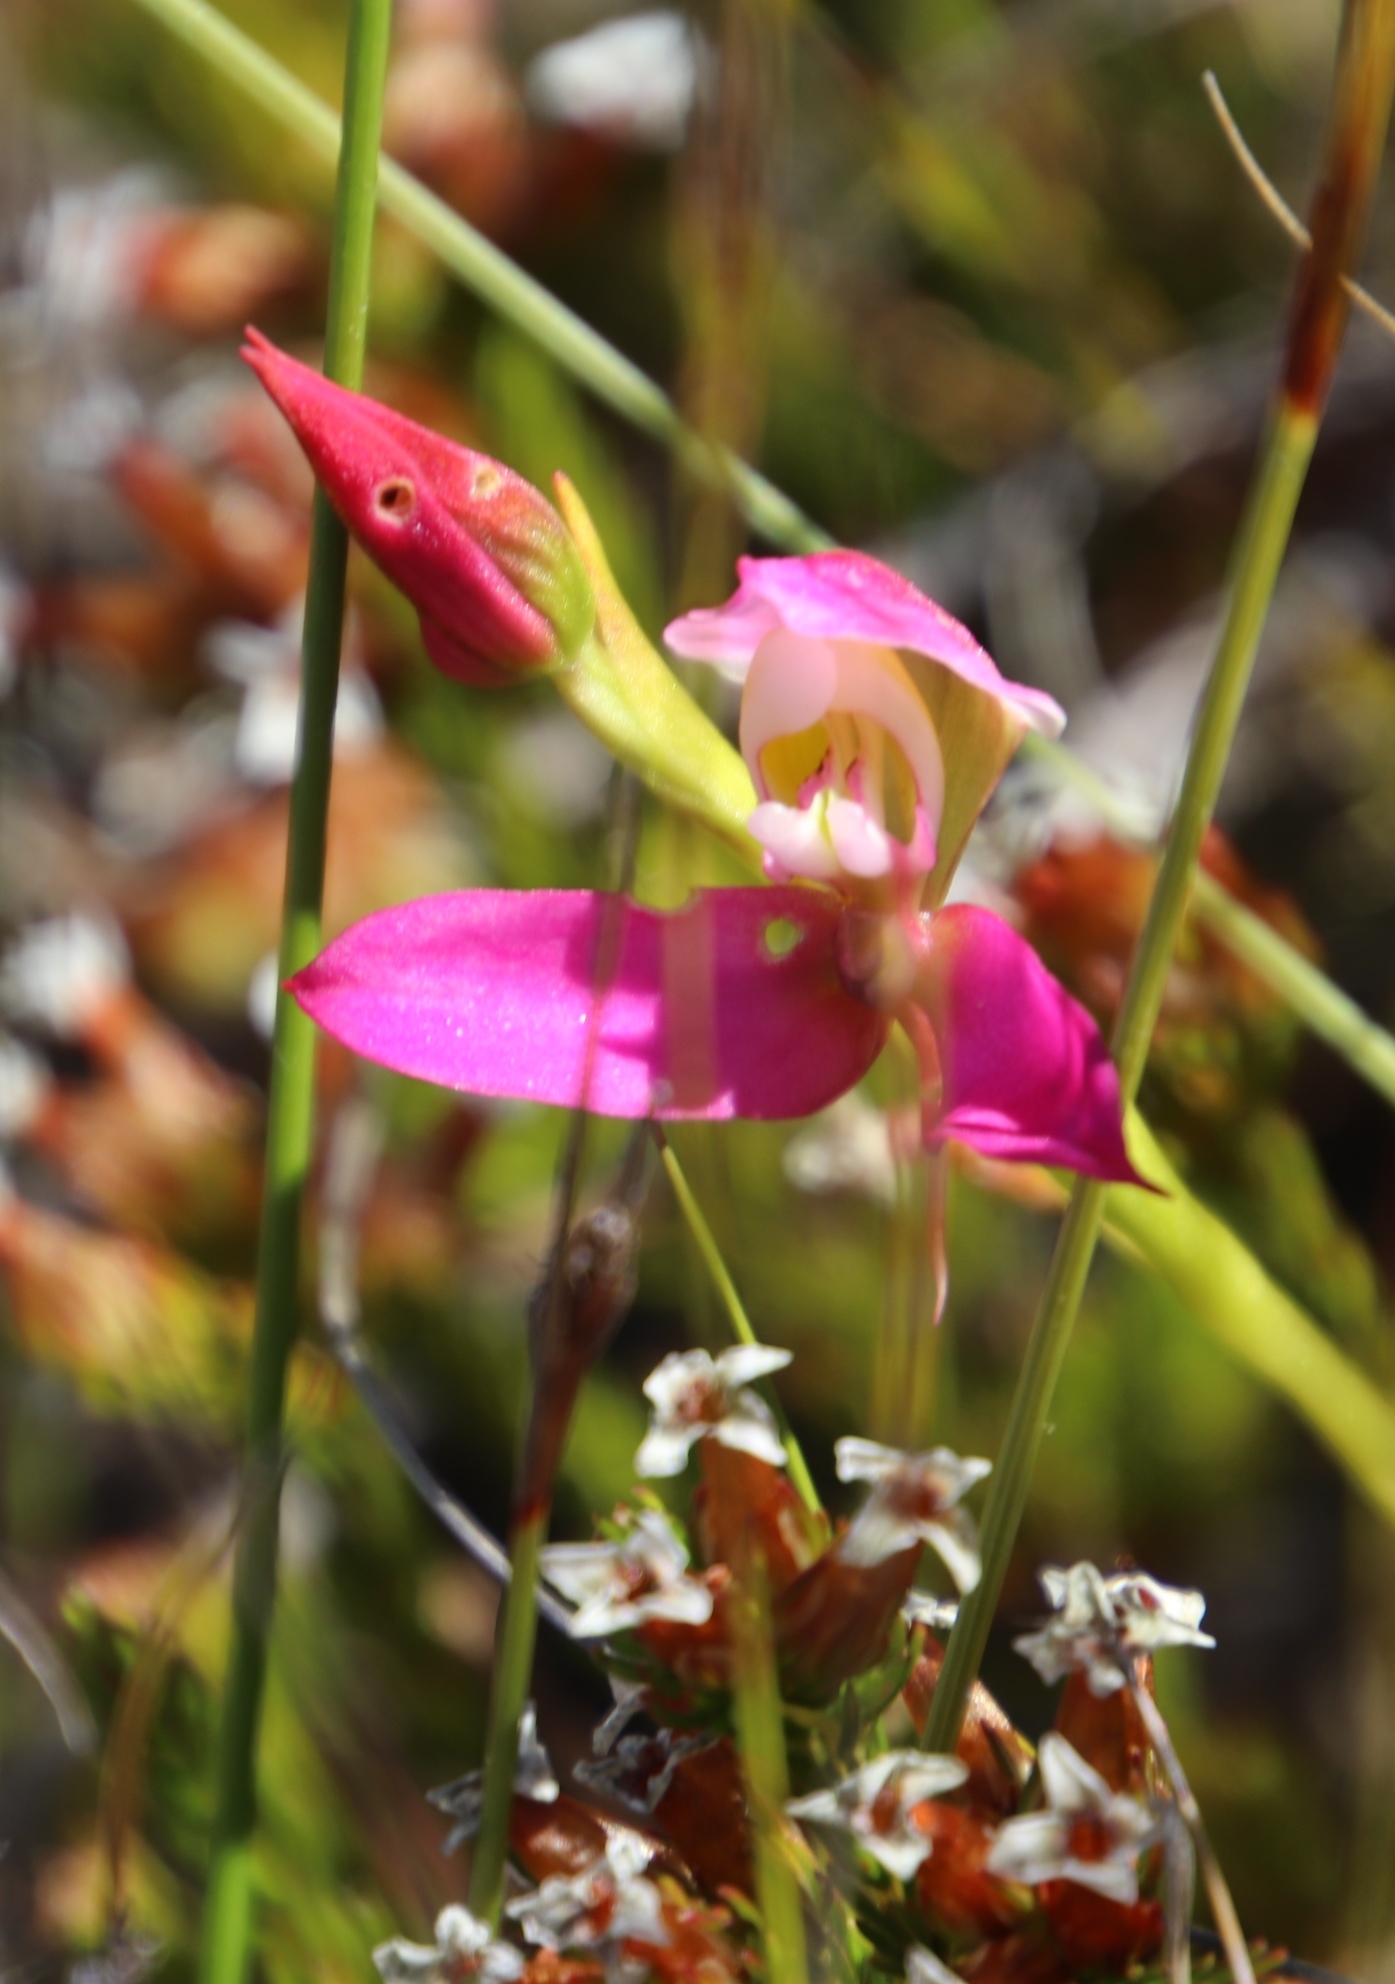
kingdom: Plantae
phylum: Tracheophyta
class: Liliopsida
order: Asparagales
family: Orchidaceae
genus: Disa
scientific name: Disa filicornis
